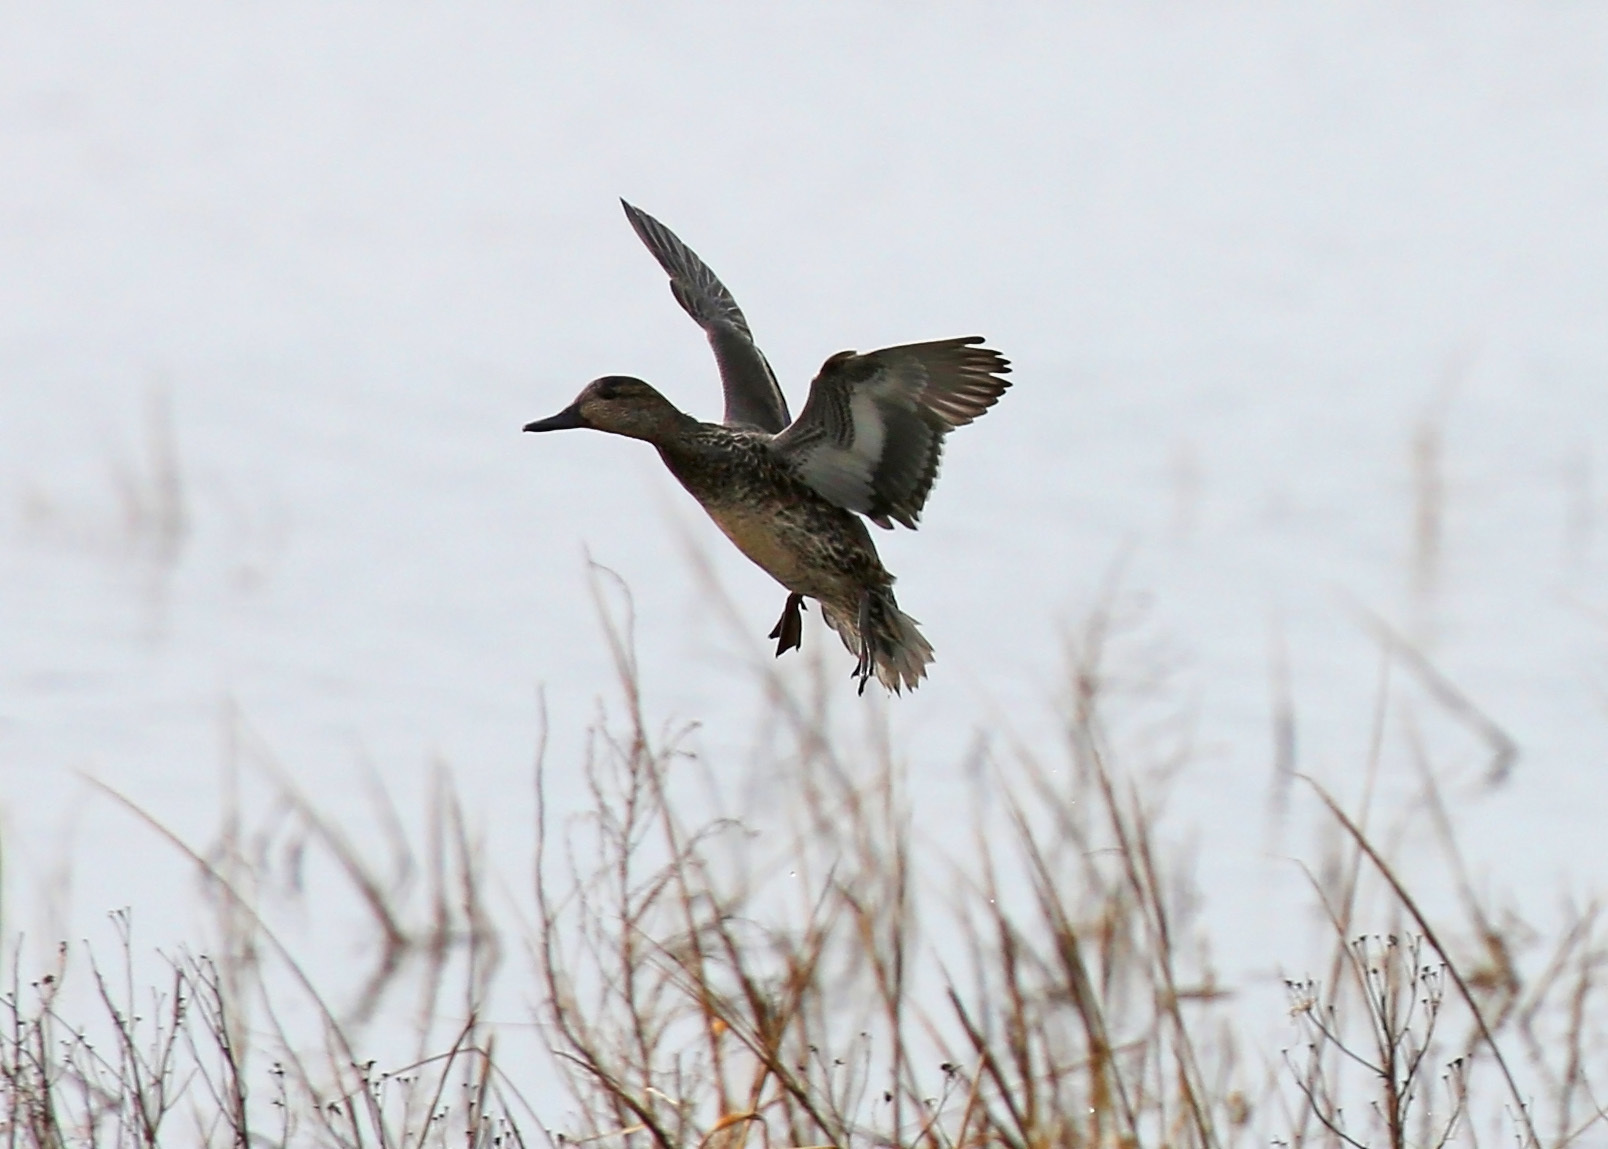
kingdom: Animalia
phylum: Chordata
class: Aves
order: Anseriformes
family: Anatidae
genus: Anas
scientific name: Anas crecca
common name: Eurasian teal
